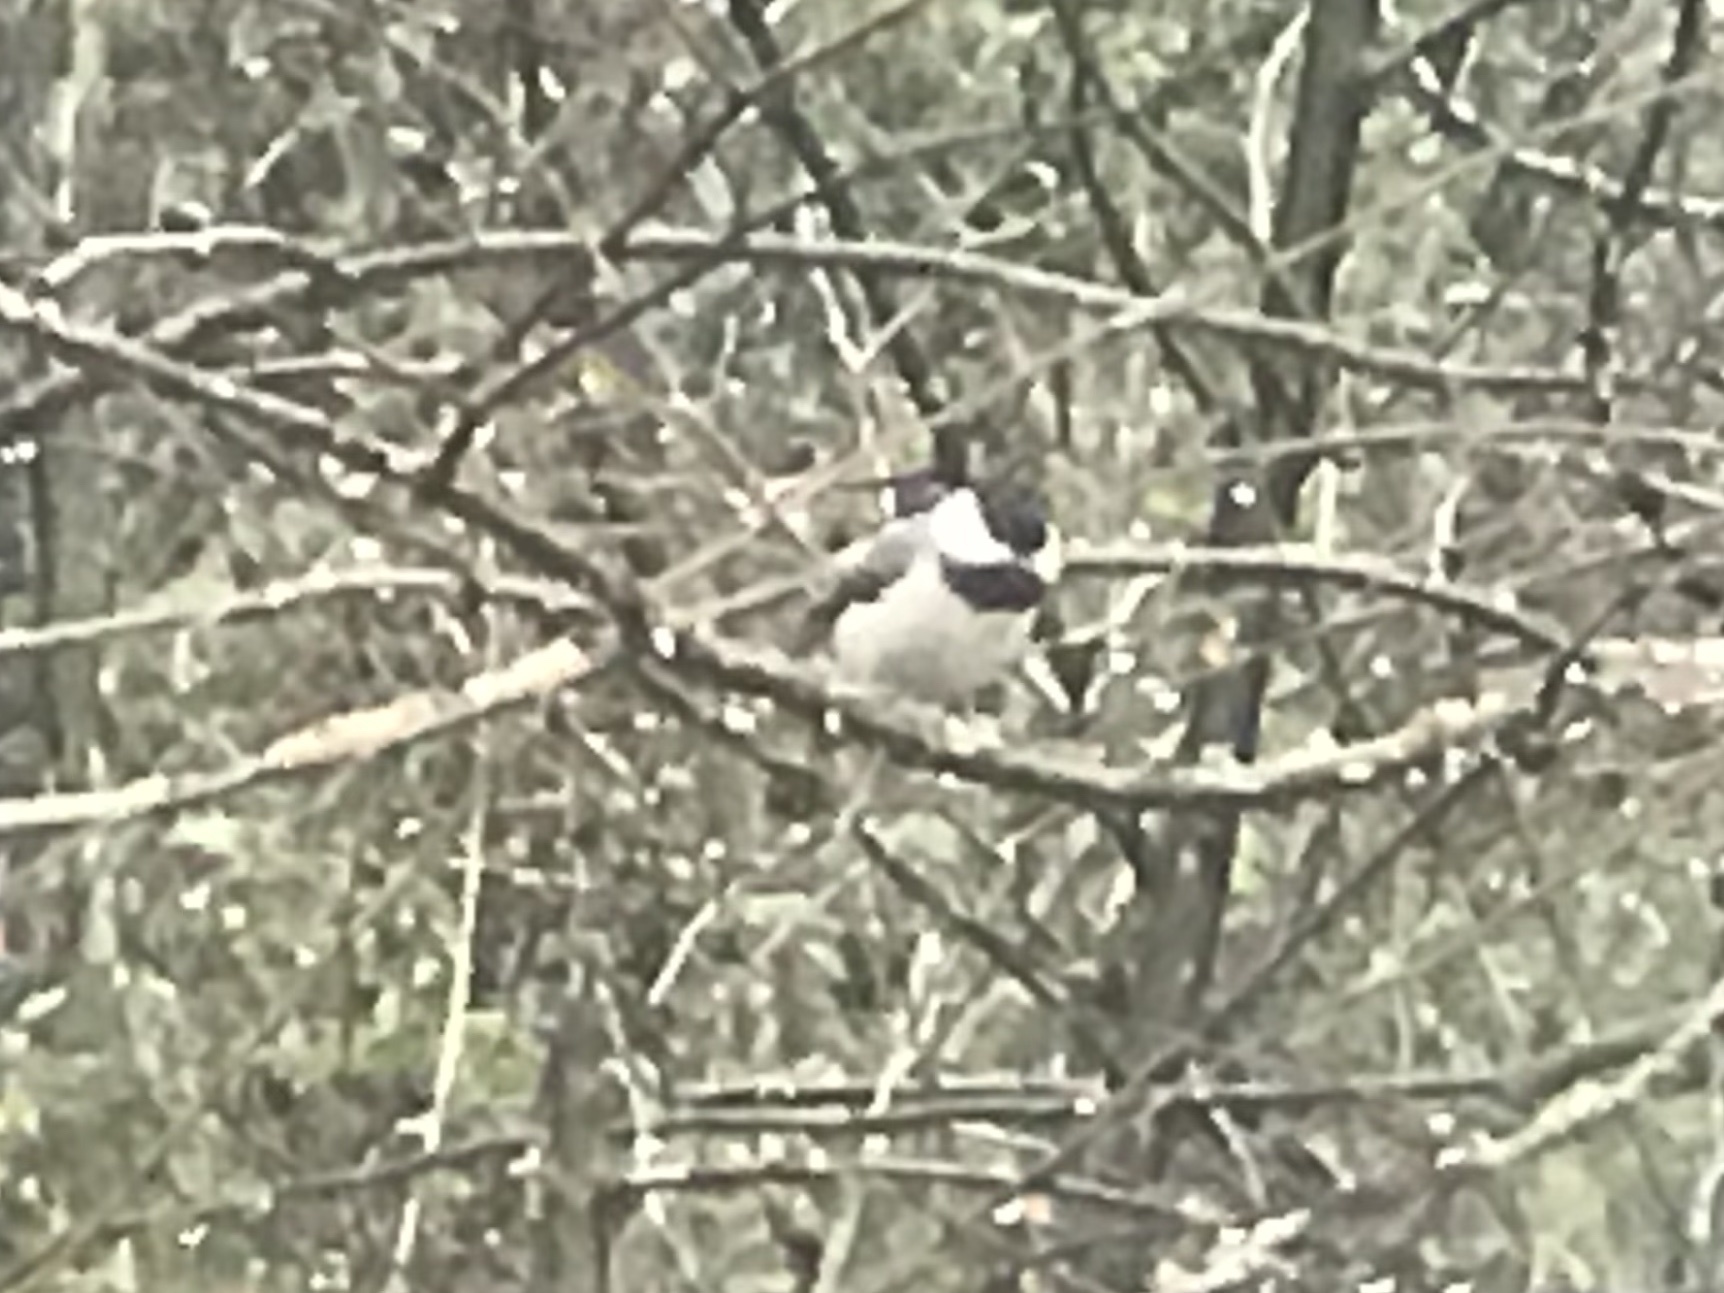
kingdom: Animalia
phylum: Chordata
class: Aves
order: Passeriformes
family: Paridae
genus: Poecile
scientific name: Poecile carolinensis
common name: Carolina chickadee
